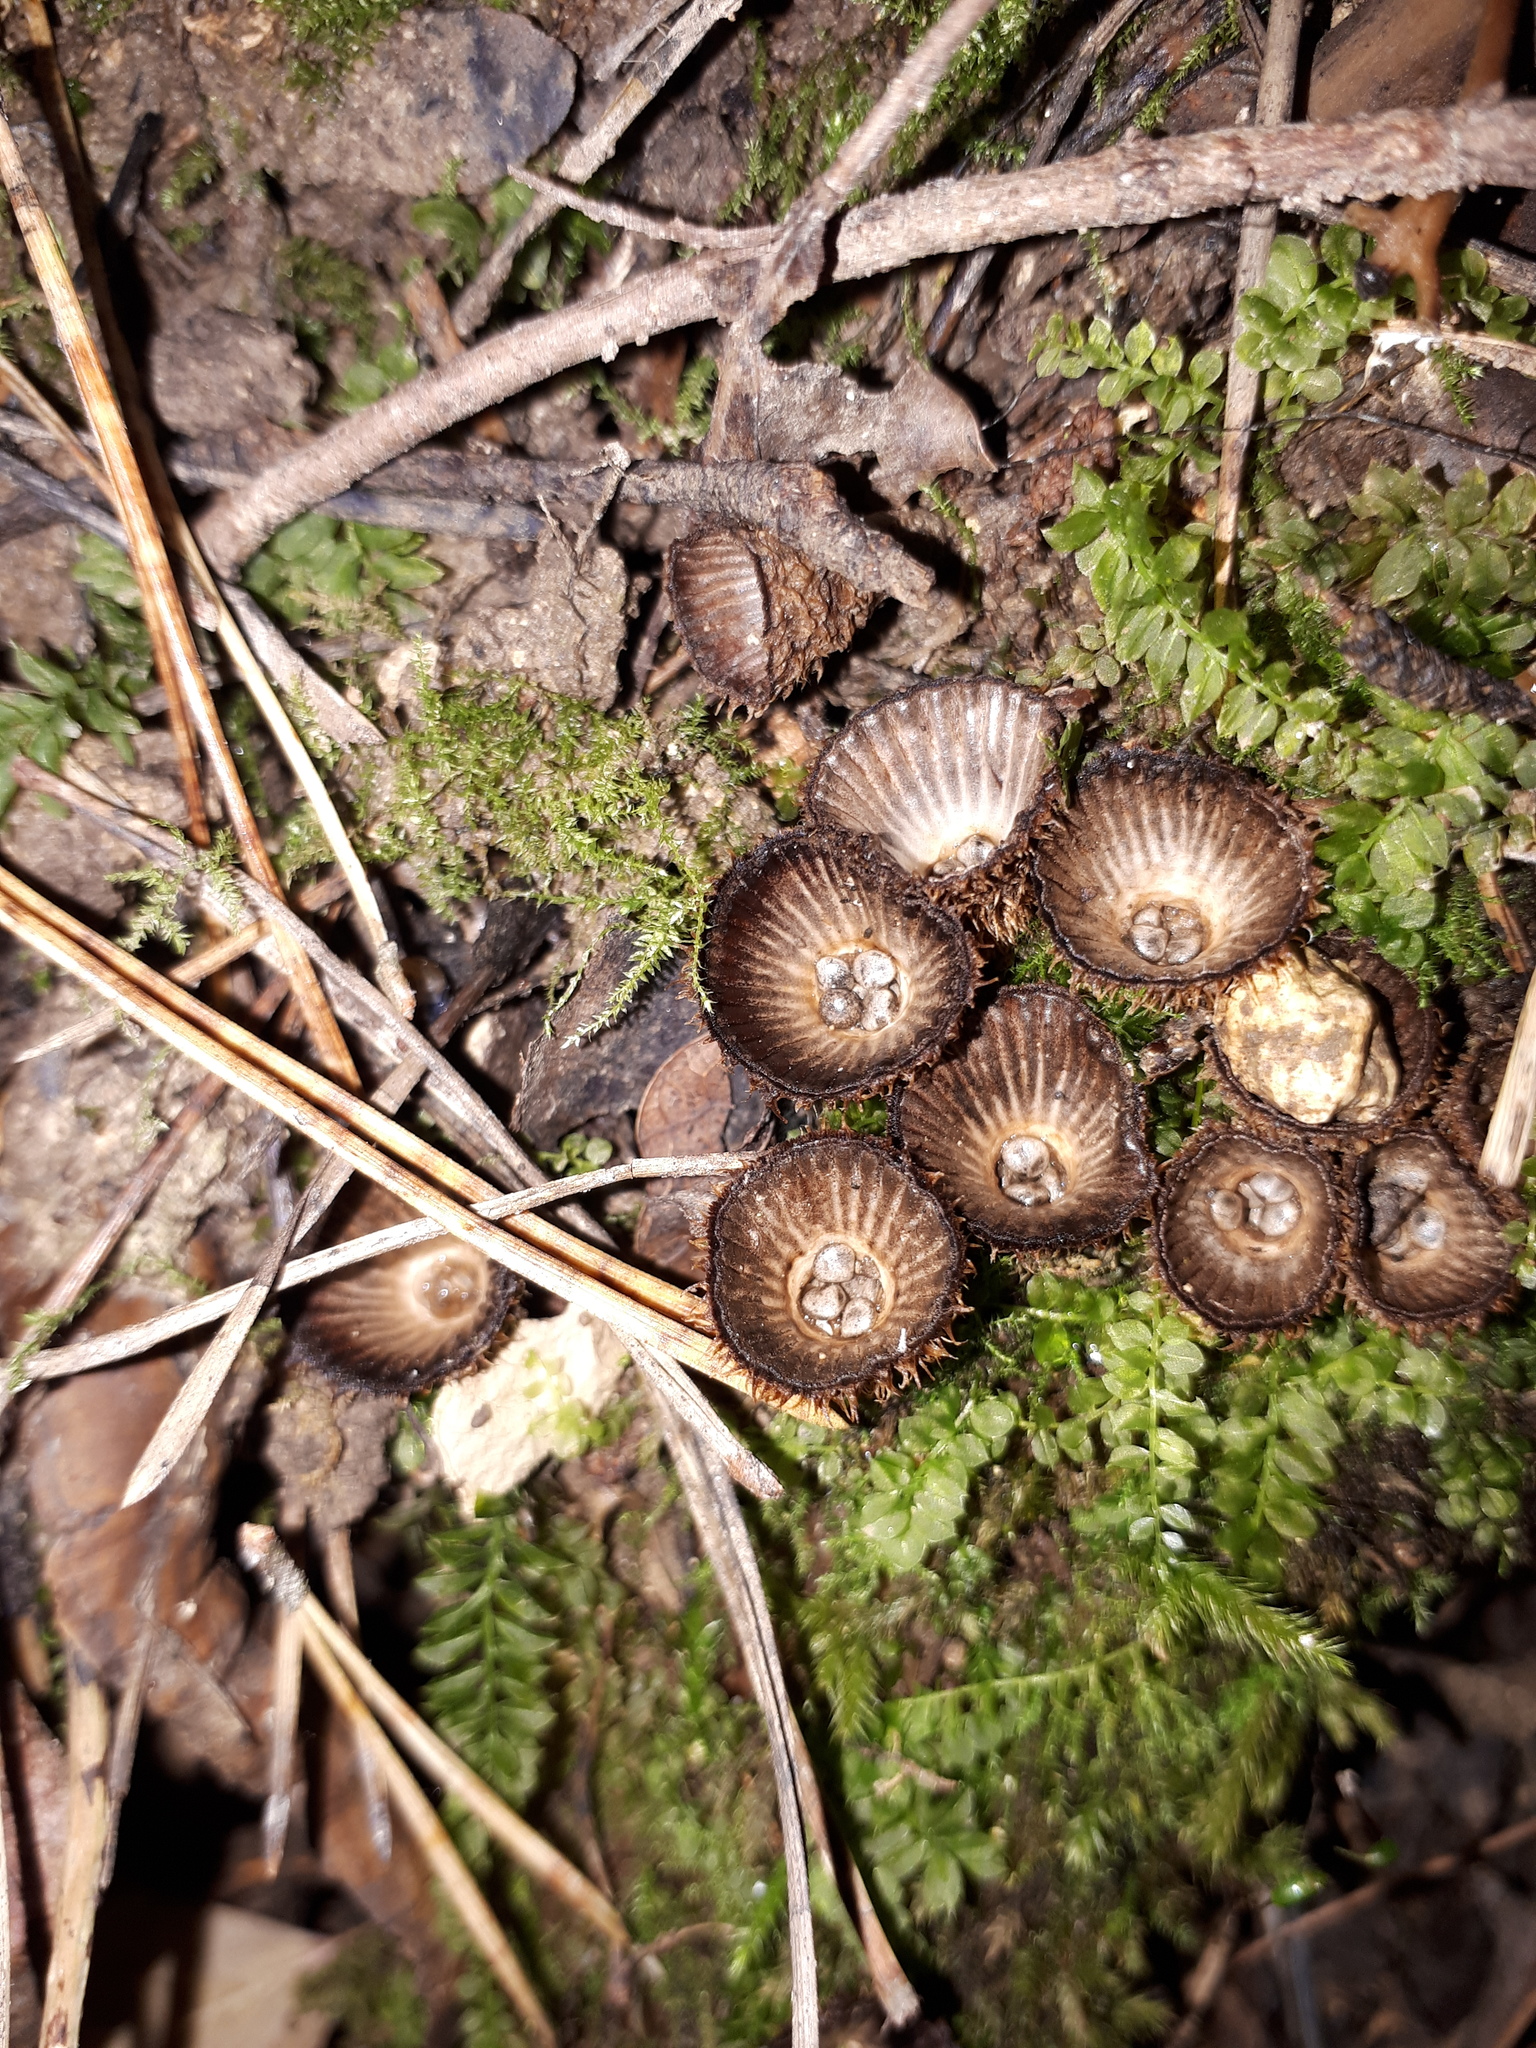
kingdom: Fungi
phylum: Basidiomycota
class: Agaricomycetes
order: Agaricales
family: Agaricaceae
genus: Cyathus
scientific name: Cyathus striatus
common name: Fluted bird's nest
